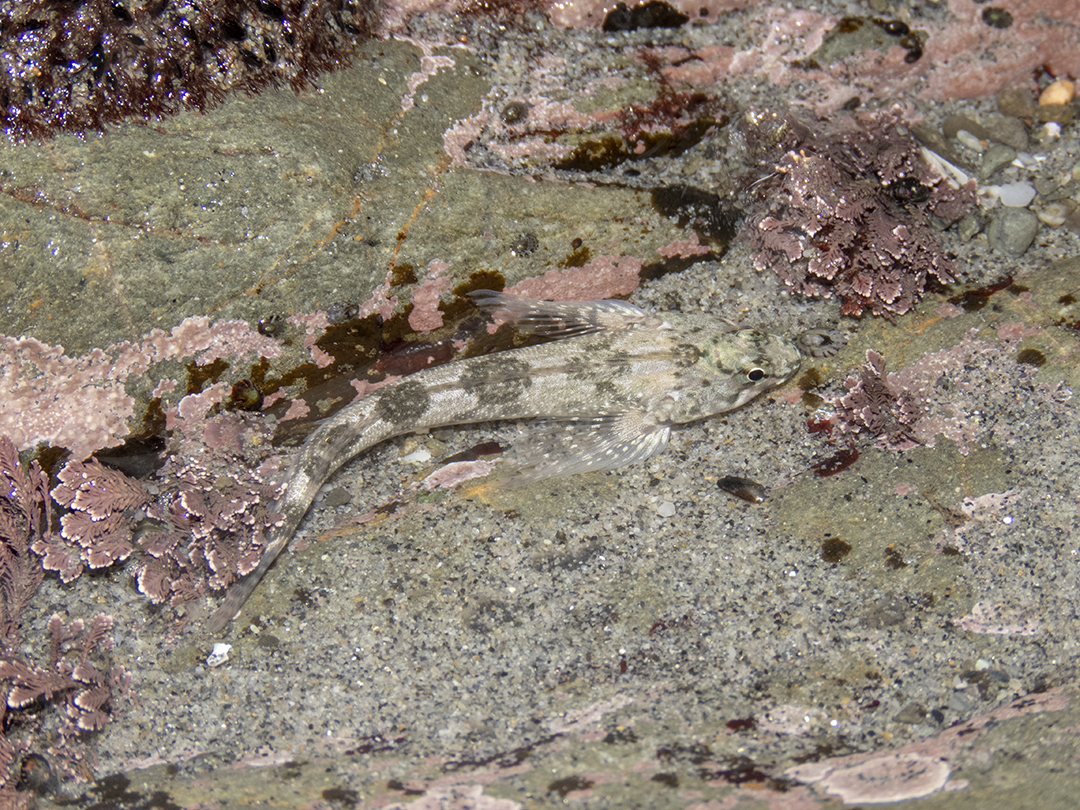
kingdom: Animalia
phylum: Chordata
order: Perciformes
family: Tripterygiidae
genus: Bellapiscis
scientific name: Bellapiscis medius
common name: Twister
